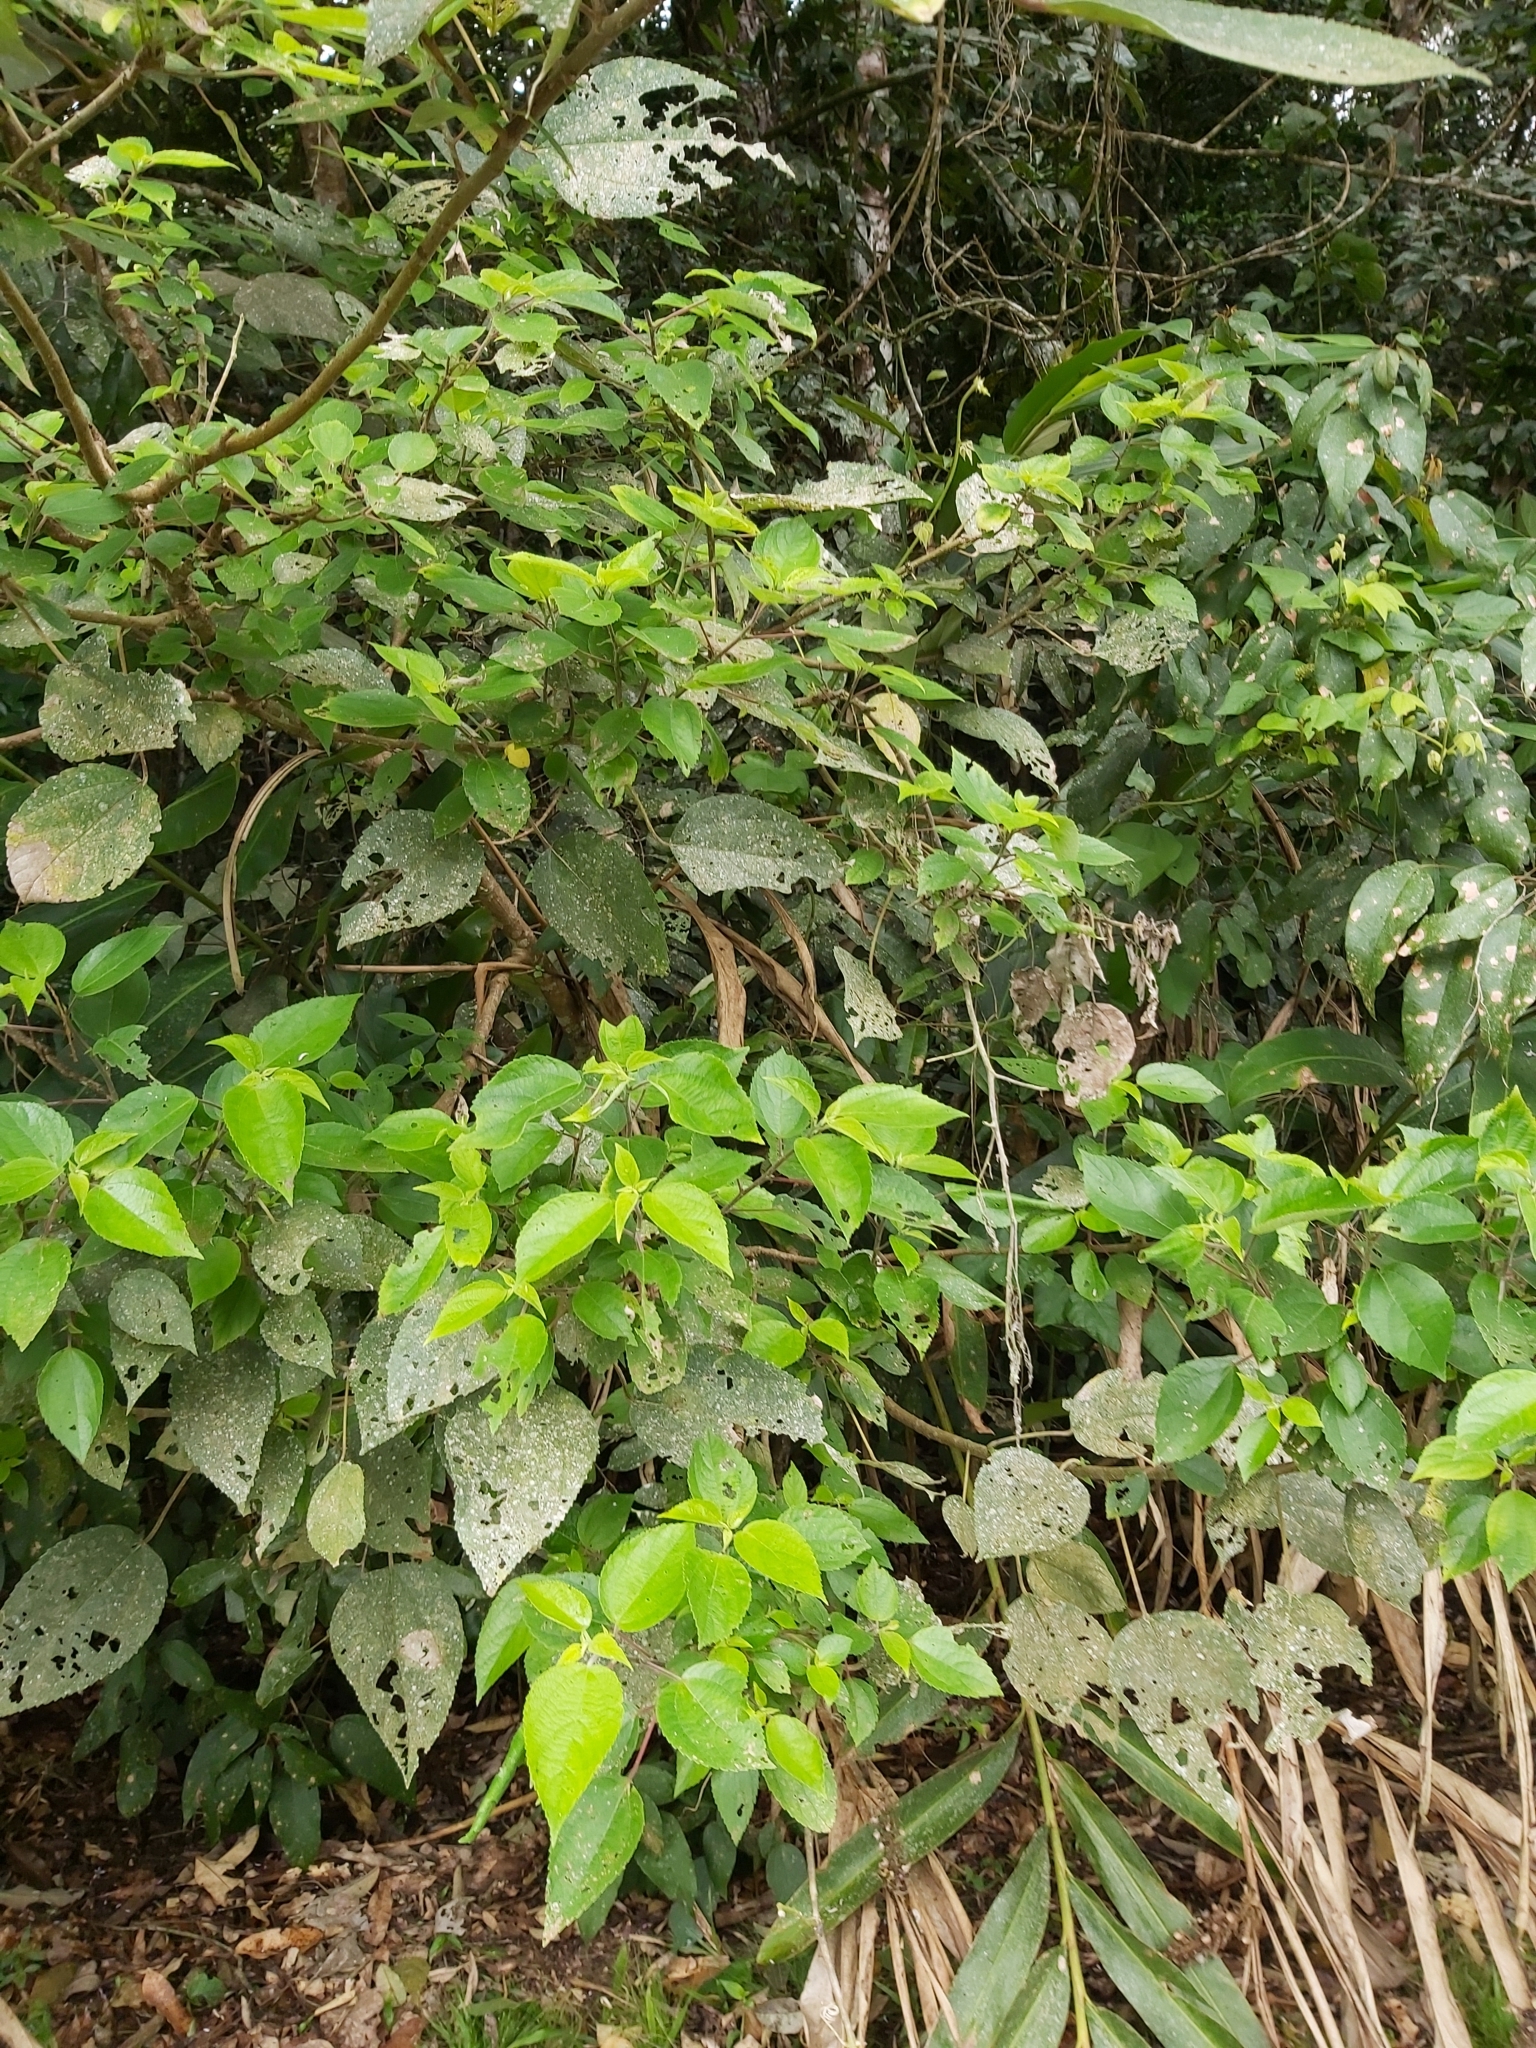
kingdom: Plantae
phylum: Tracheophyta
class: Magnoliopsida
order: Rosales
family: Urticaceae
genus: Pipturus
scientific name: Pipturus argenteus
